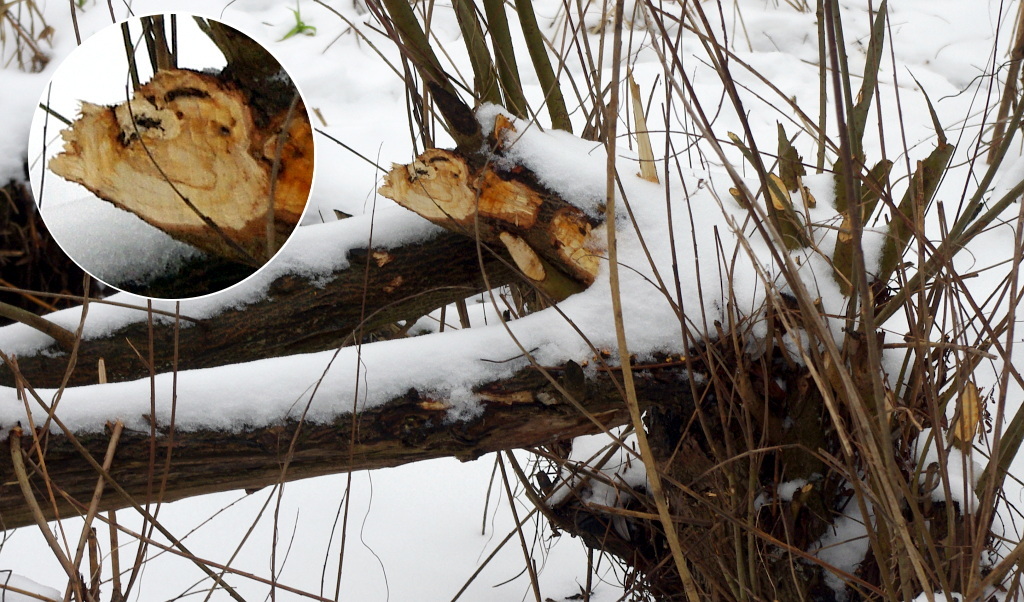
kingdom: Animalia
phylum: Chordata
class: Mammalia
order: Rodentia
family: Castoridae
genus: Castor
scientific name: Castor fiber
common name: Eurasian beaver
